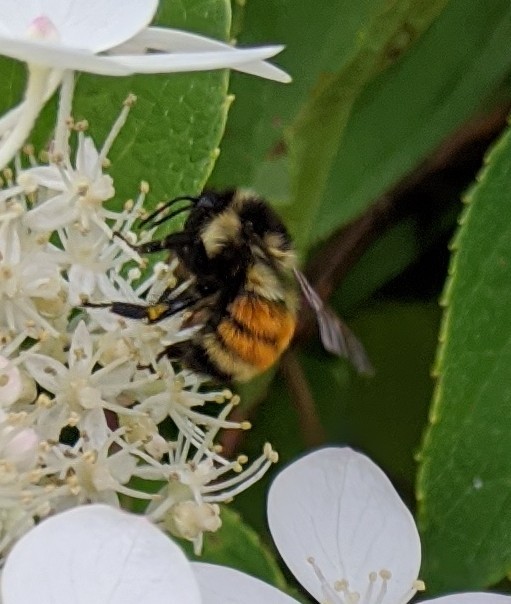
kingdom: Animalia
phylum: Arthropoda
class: Insecta
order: Hymenoptera
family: Apidae
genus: Bombus
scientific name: Bombus ternarius
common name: Tri-colored bumble bee
